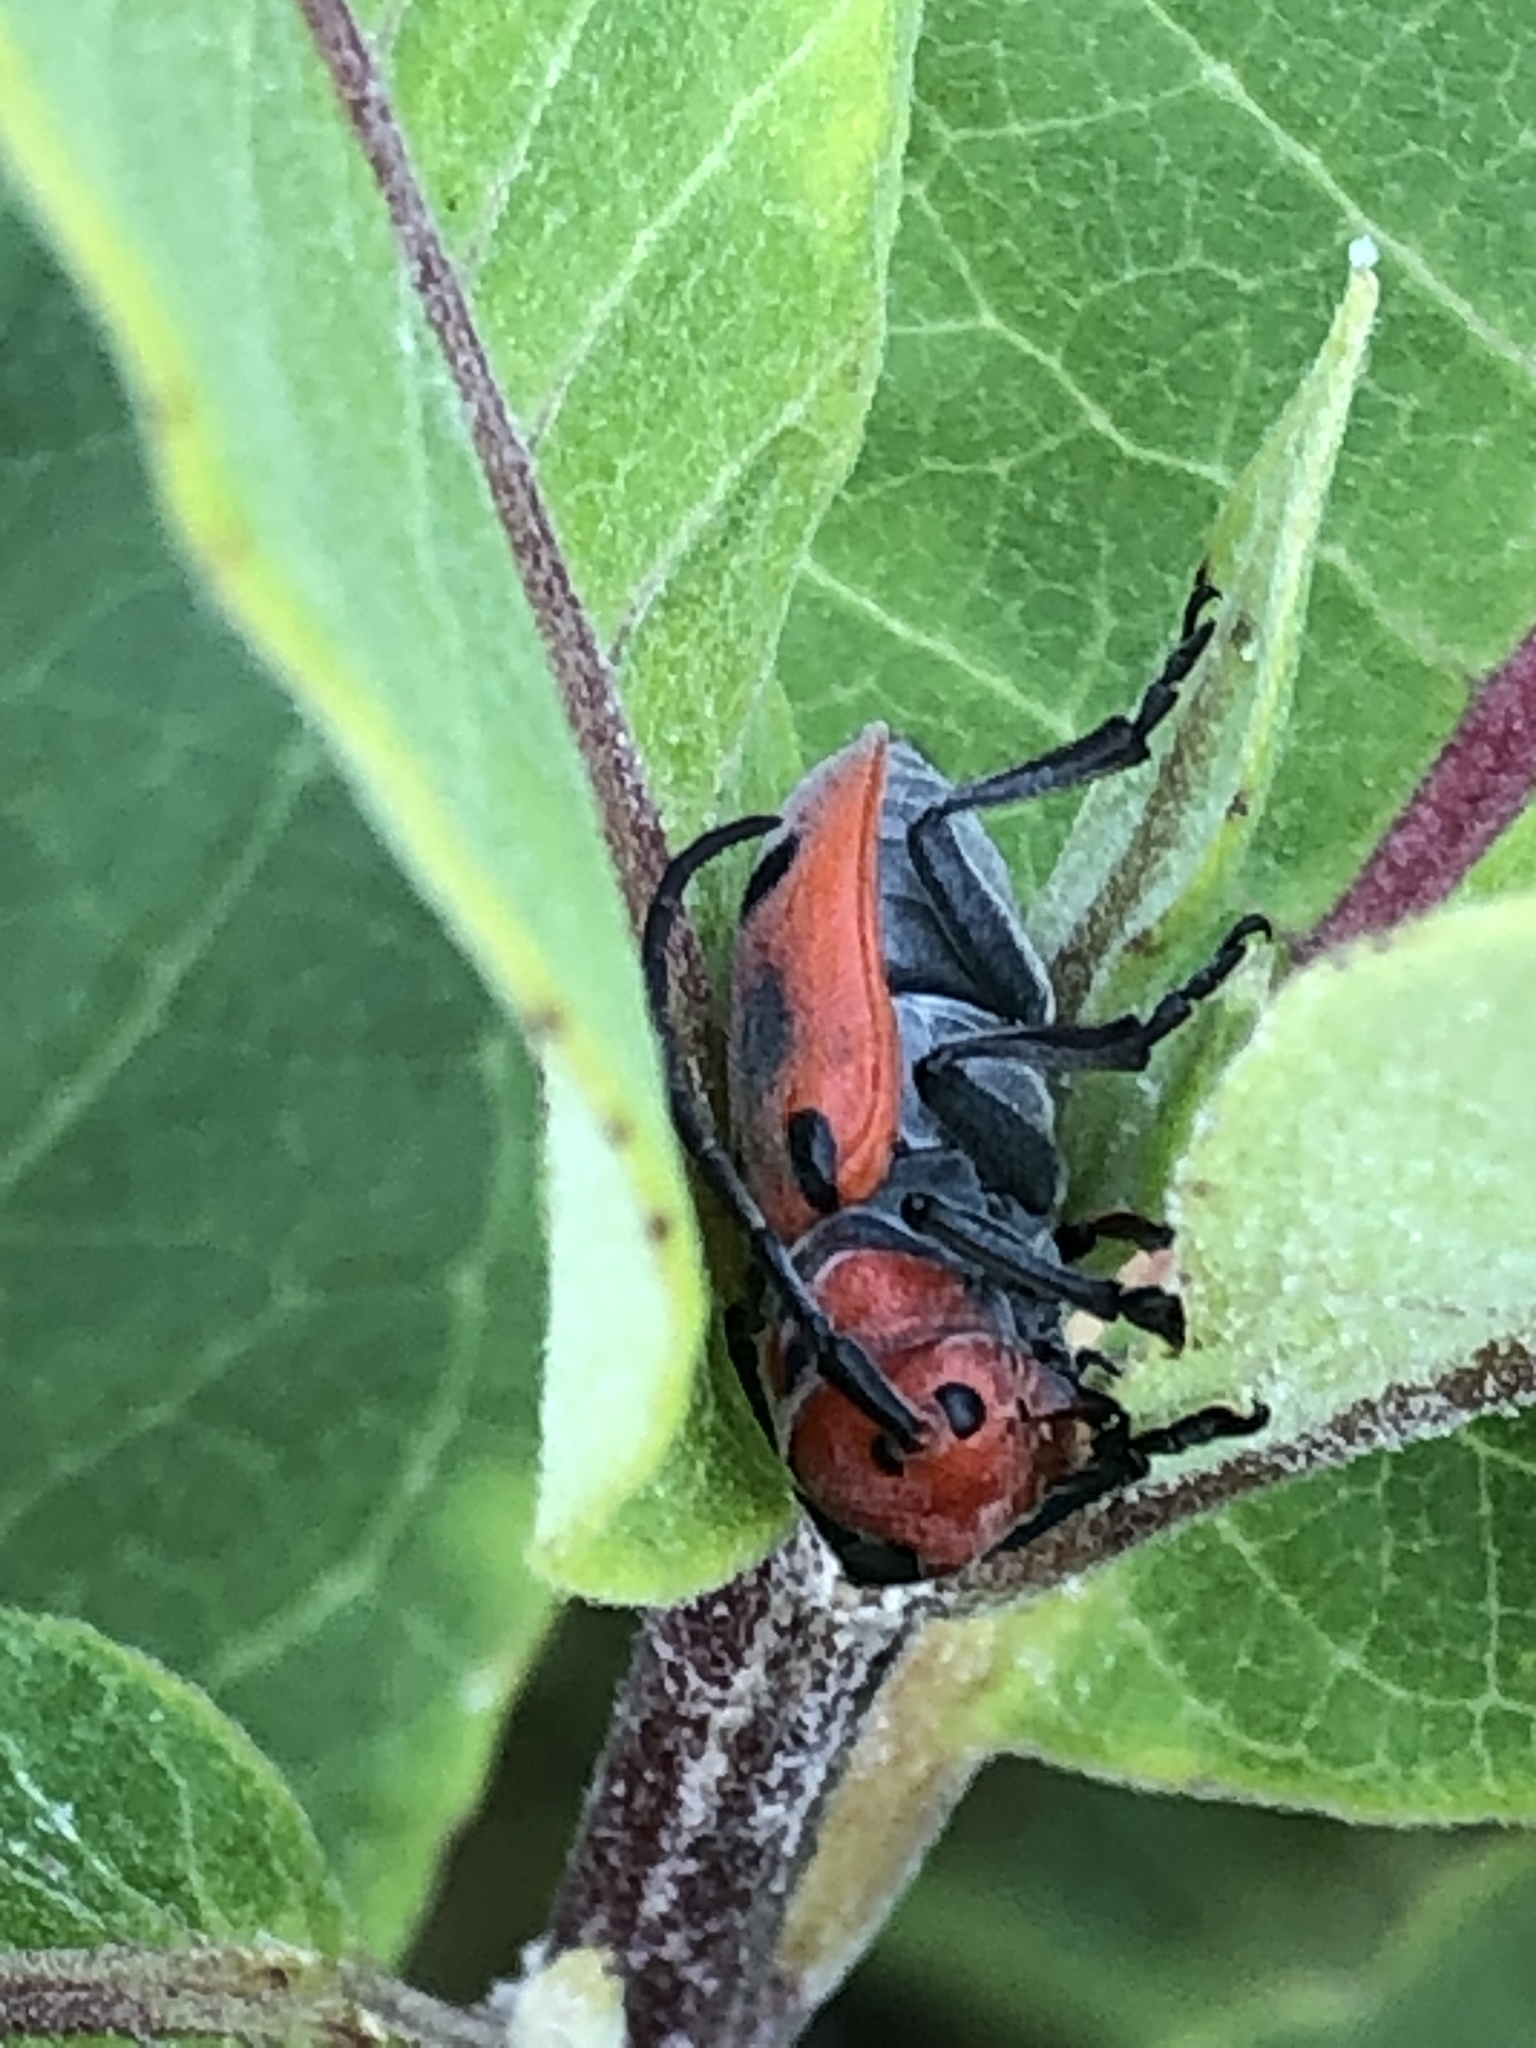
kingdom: Animalia
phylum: Arthropoda
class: Insecta
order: Coleoptera
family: Cerambycidae
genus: Tetraopes
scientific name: Tetraopes tetrophthalmus
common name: Red milkweed beetle
